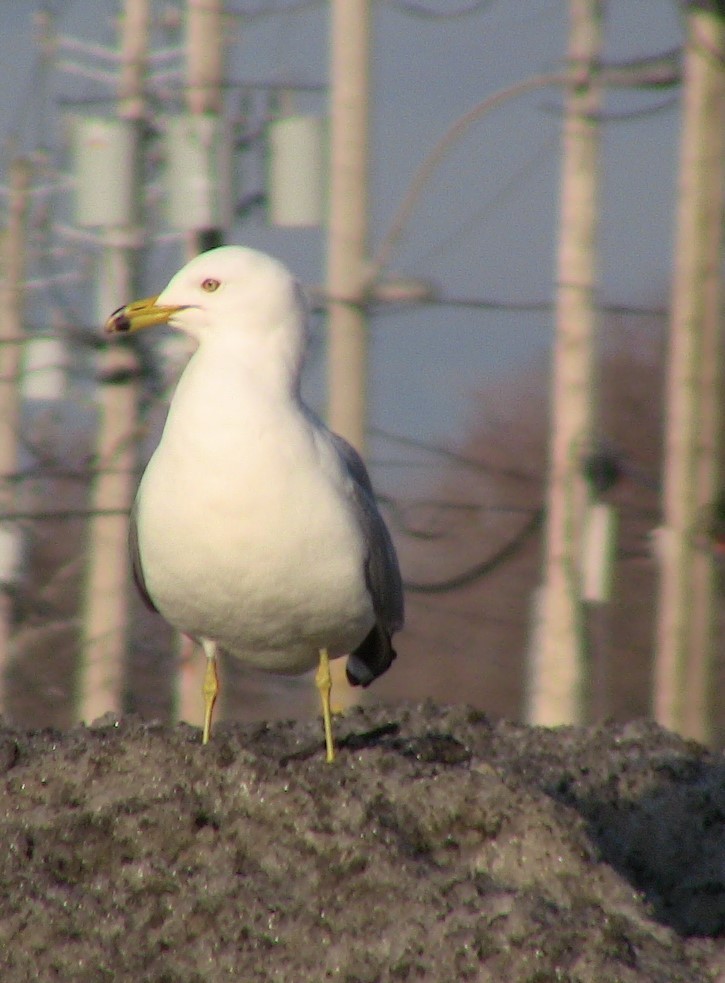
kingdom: Animalia
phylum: Chordata
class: Aves
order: Charadriiformes
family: Laridae
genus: Larus
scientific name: Larus delawarensis
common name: Ring-billed gull
